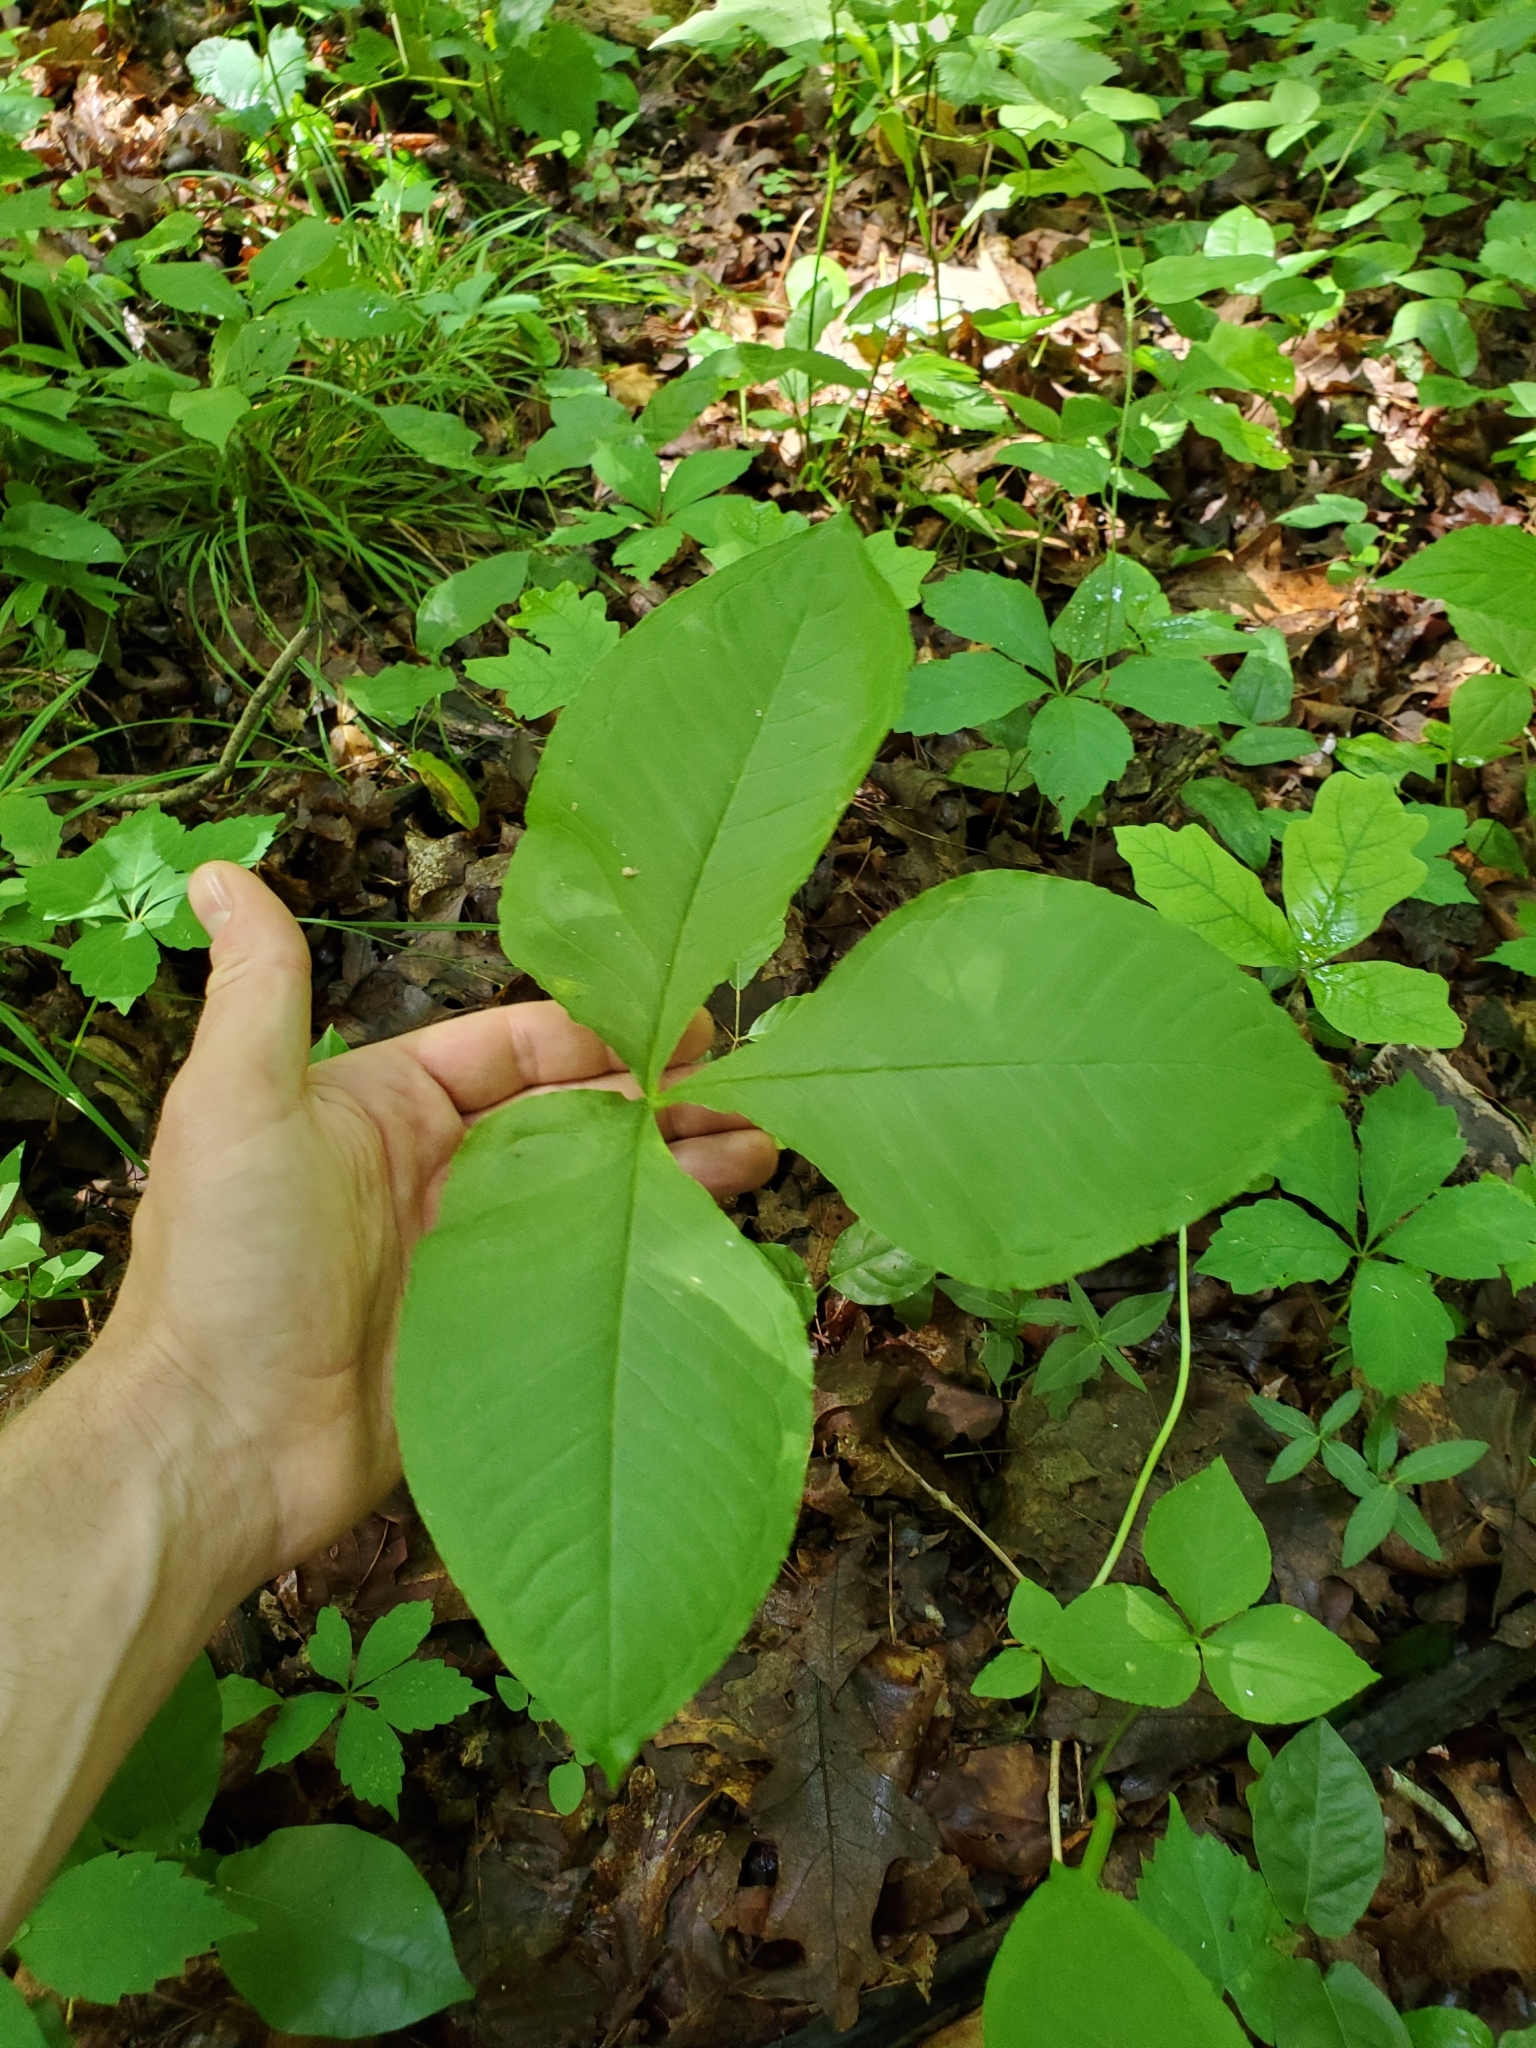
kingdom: Plantae
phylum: Tracheophyta
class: Liliopsida
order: Alismatales
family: Araceae
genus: Arisaema
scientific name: Arisaema triphyllum
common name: Jack-in-the-pulpit
